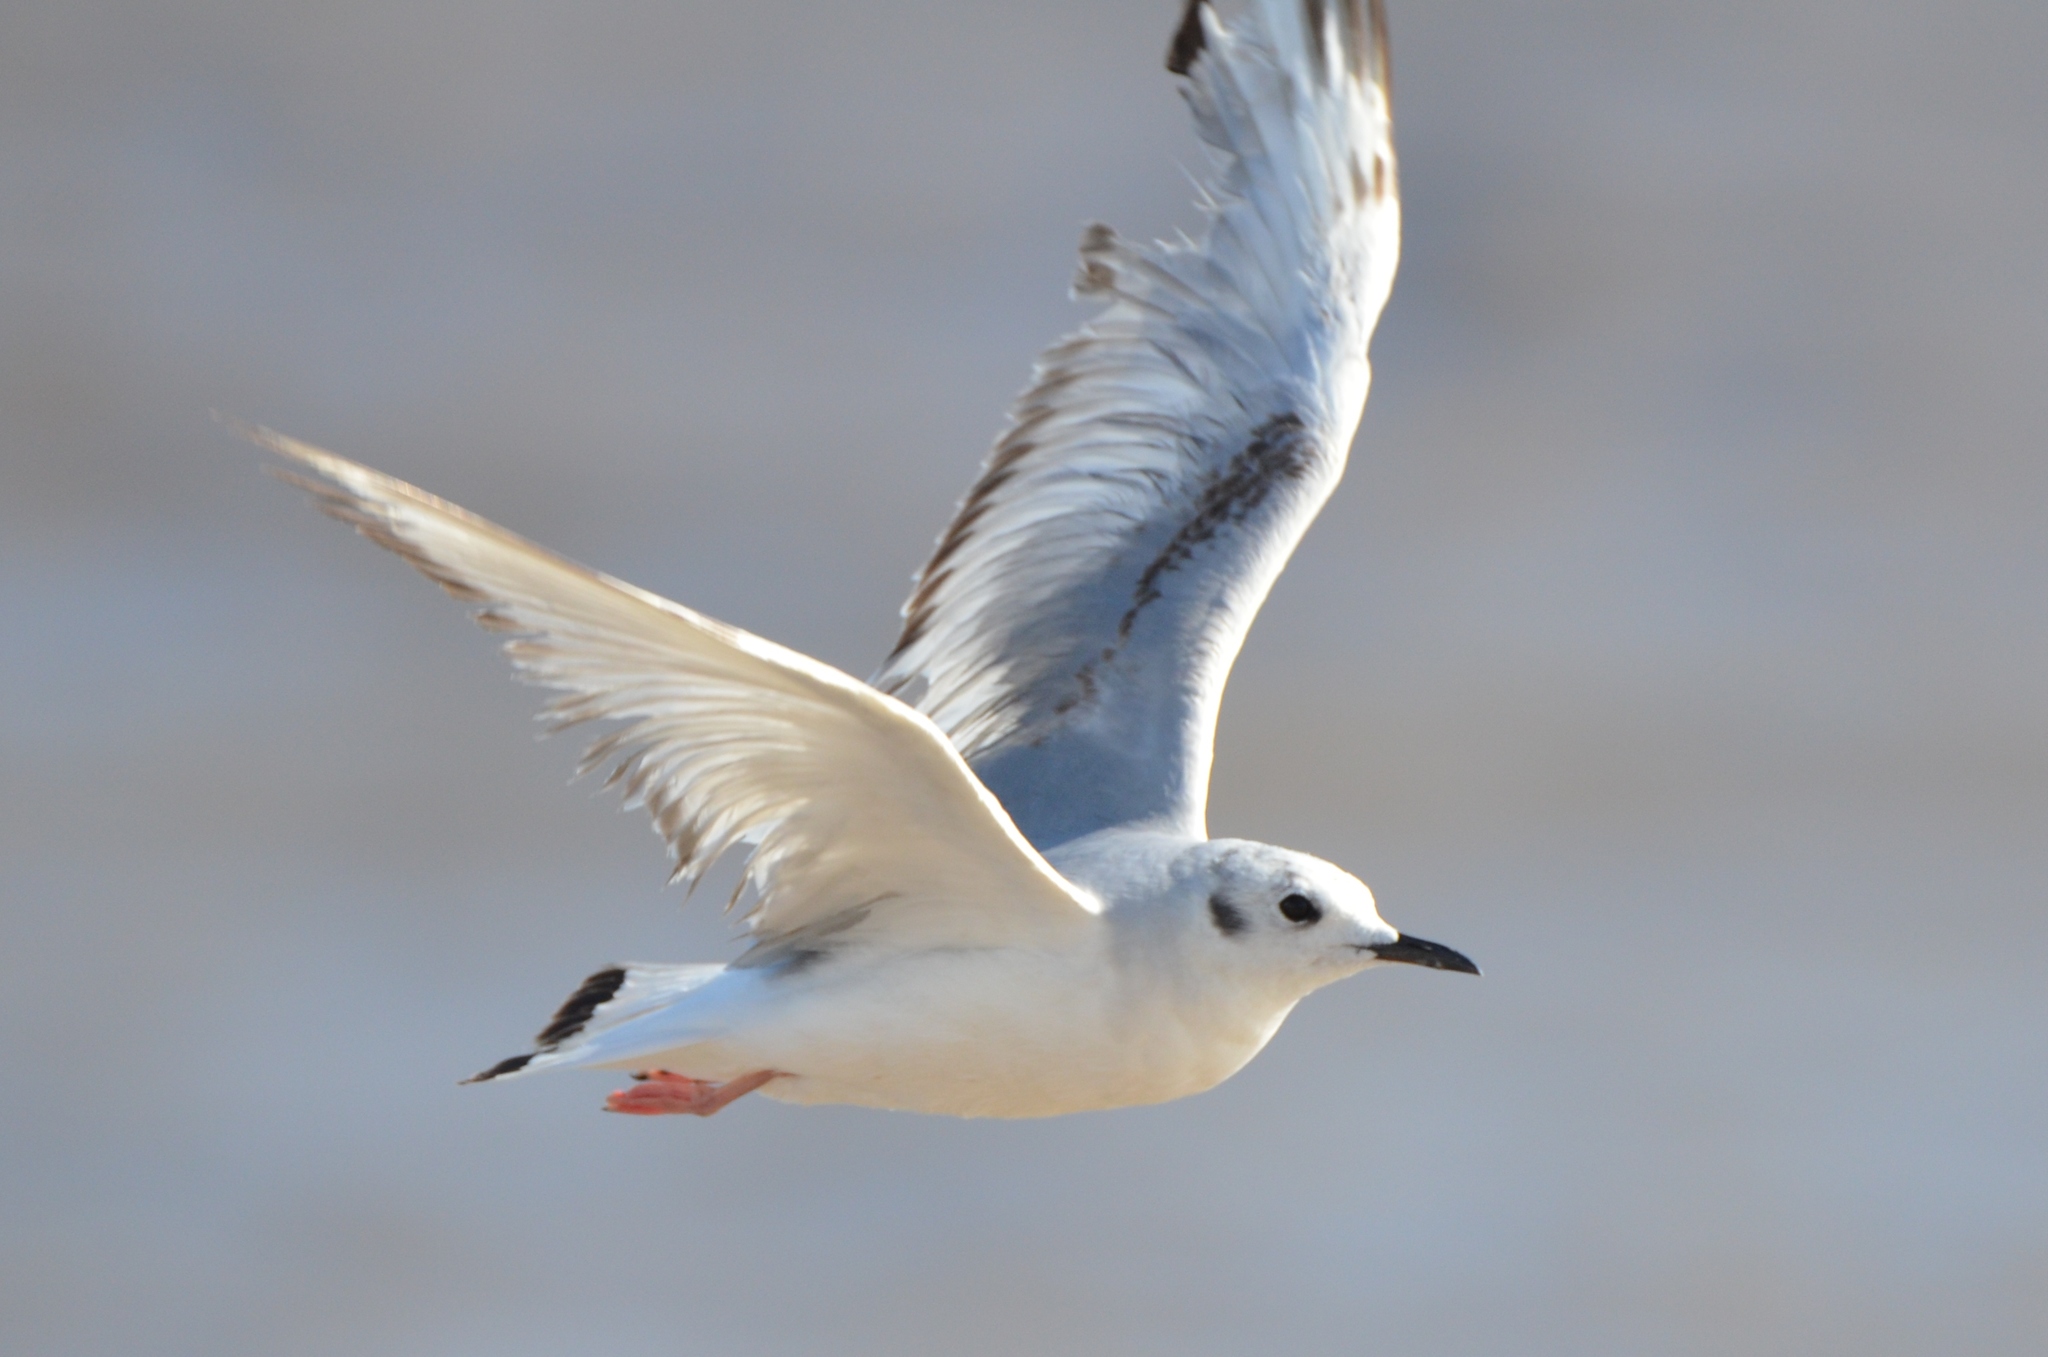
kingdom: Animalia
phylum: Chordata
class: Aves
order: Charadriiformes
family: Laridae
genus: Chroicocephalus
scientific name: Chroicocephalus philadelphia
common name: Bonaparte's gull
